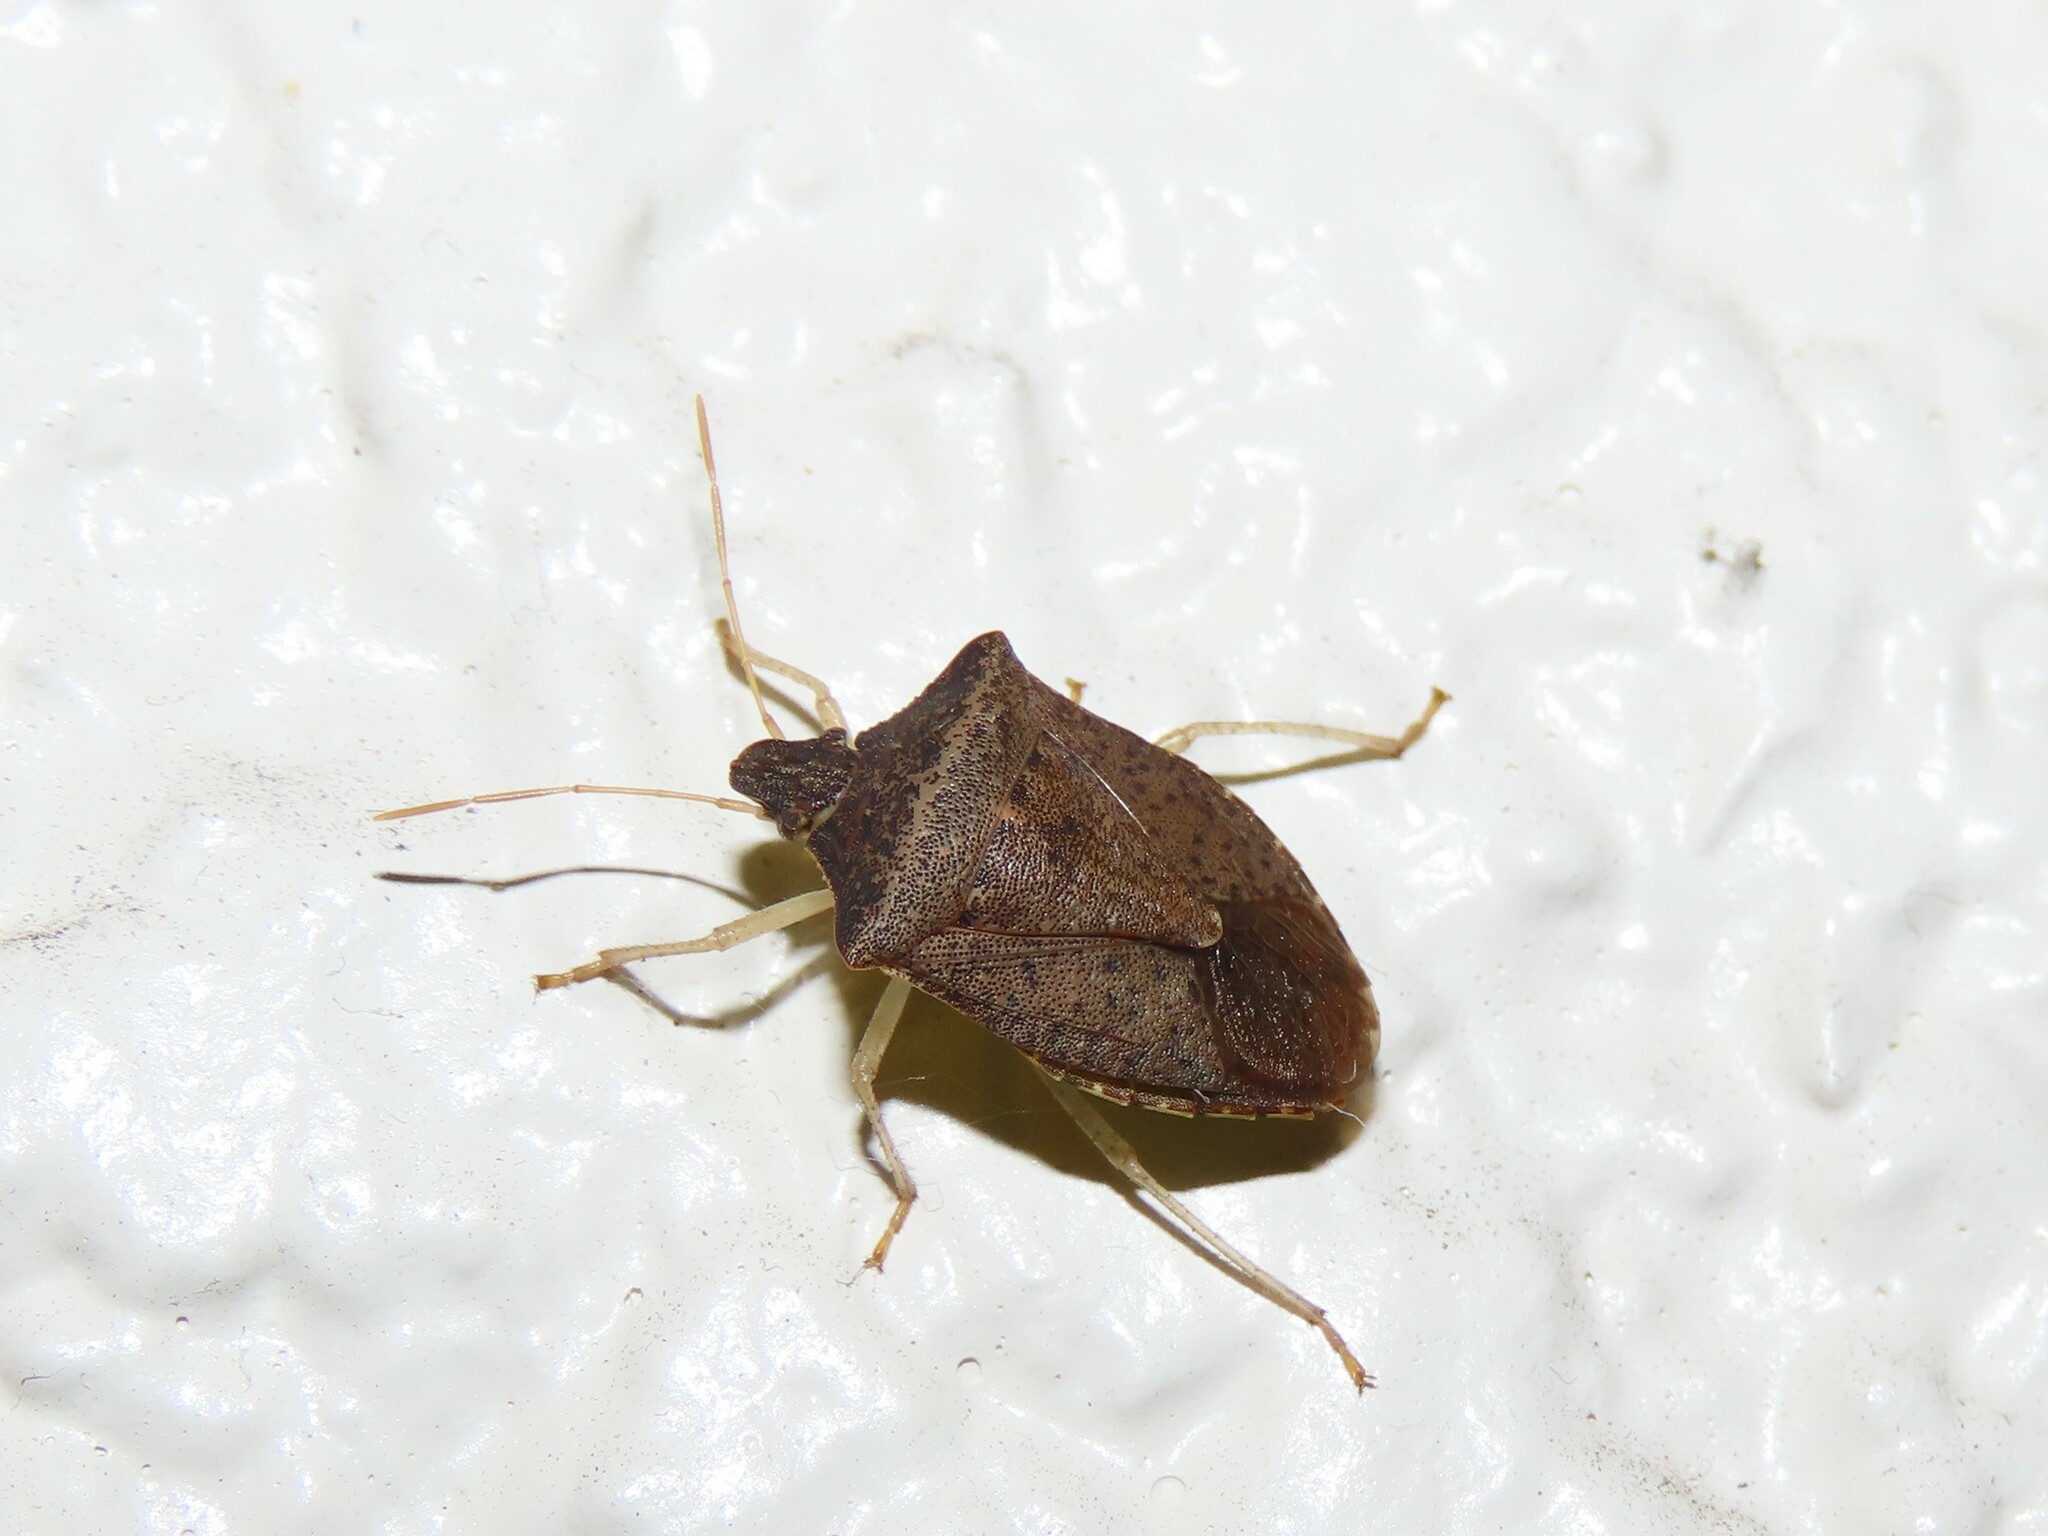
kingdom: Animalia
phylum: Arthropoda
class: Insecta
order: Hemiptera
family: Pentatomidae
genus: Euschistus
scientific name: Euschistus obscurus
